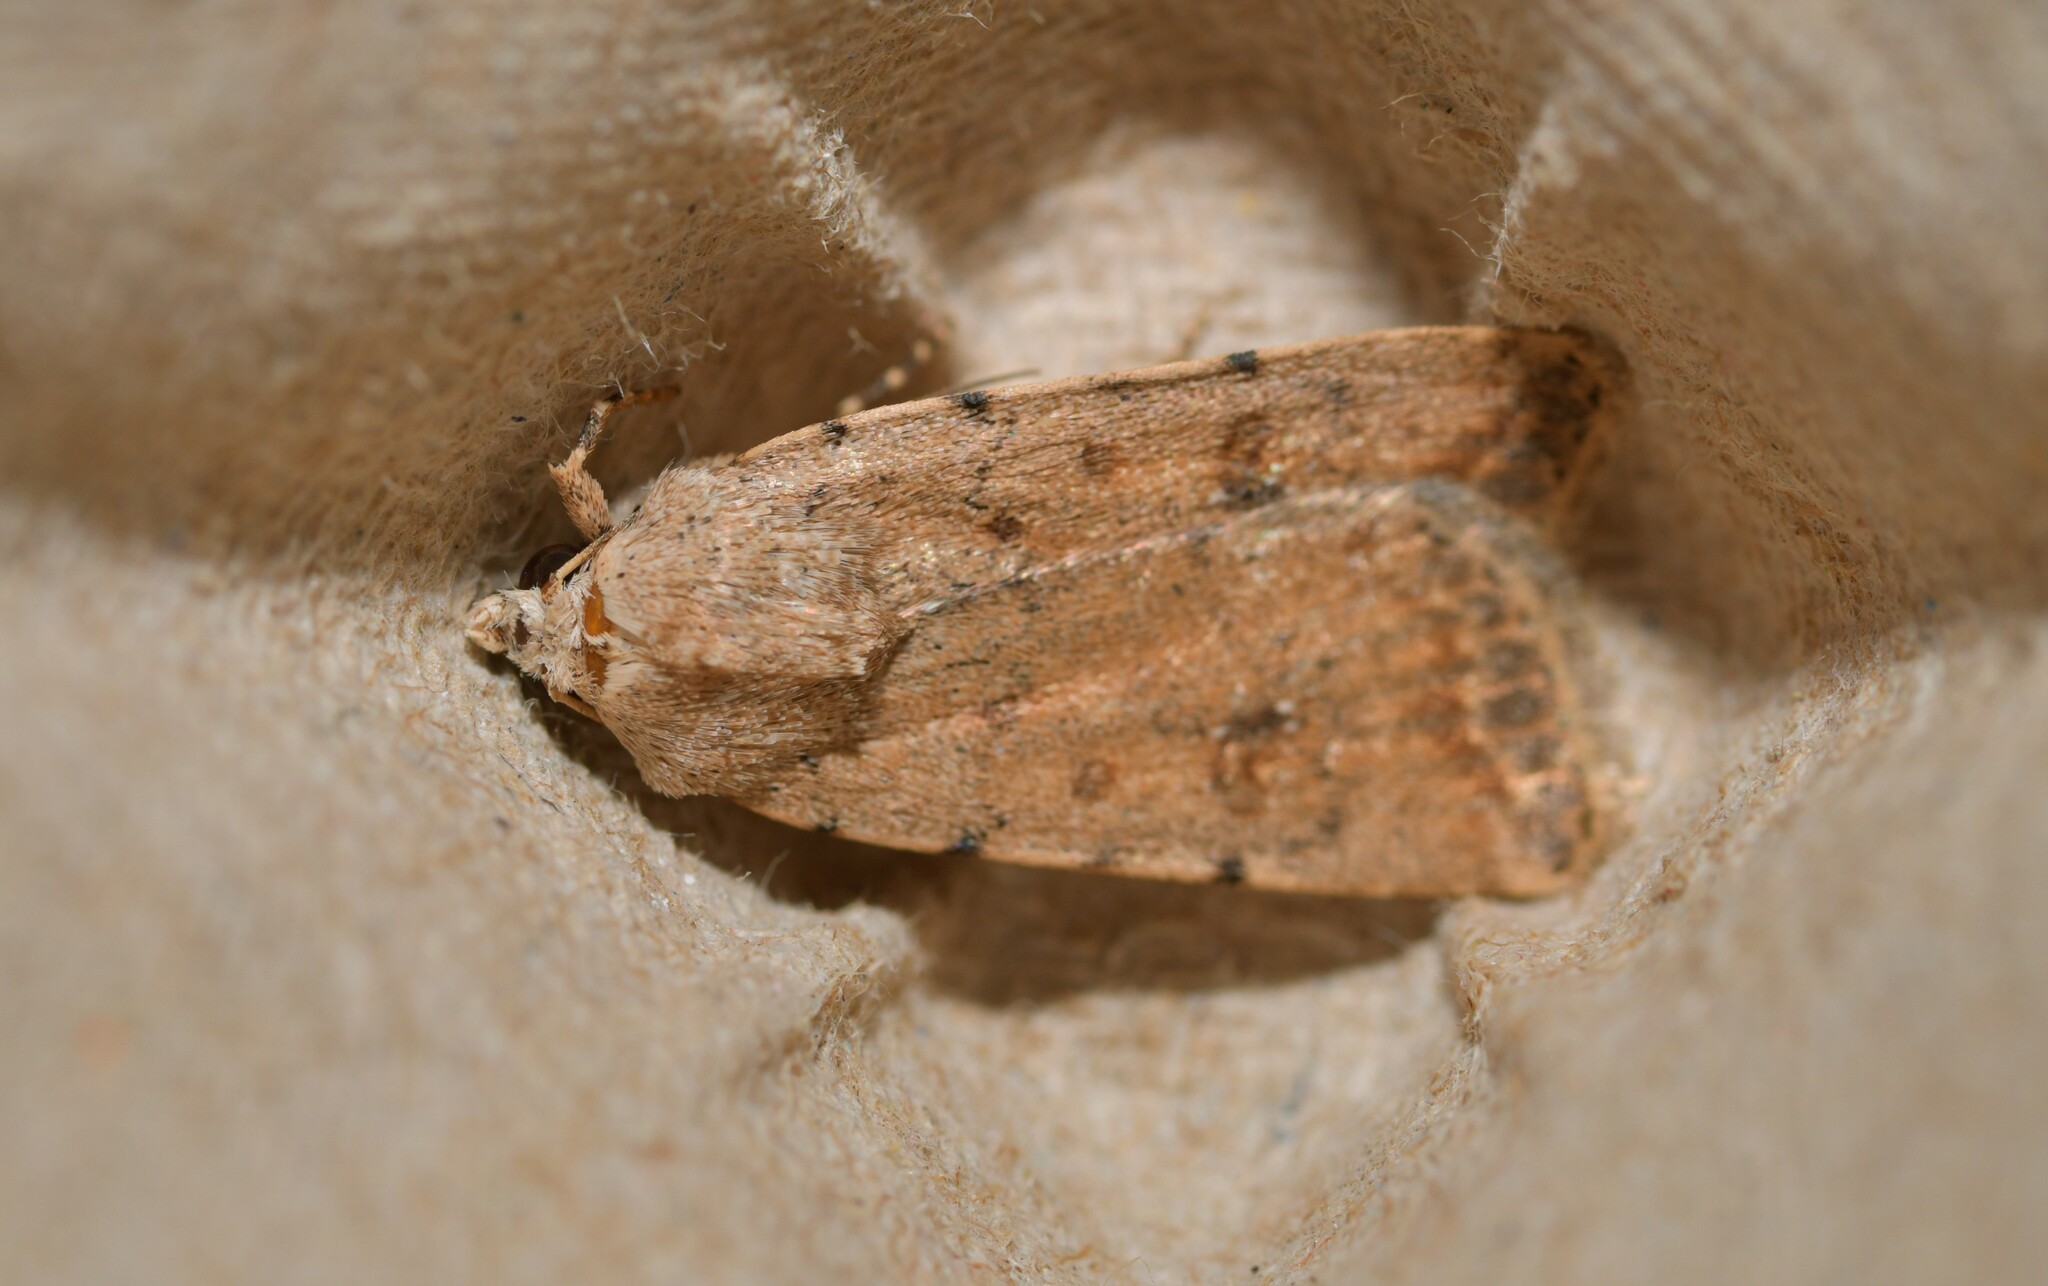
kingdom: Animalia
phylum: Arthropoda
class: Insecta
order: Lepidoptera
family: Noctuidae
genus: Caradrina
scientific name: Caradrina clavipalpis
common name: Pale mottled willow
